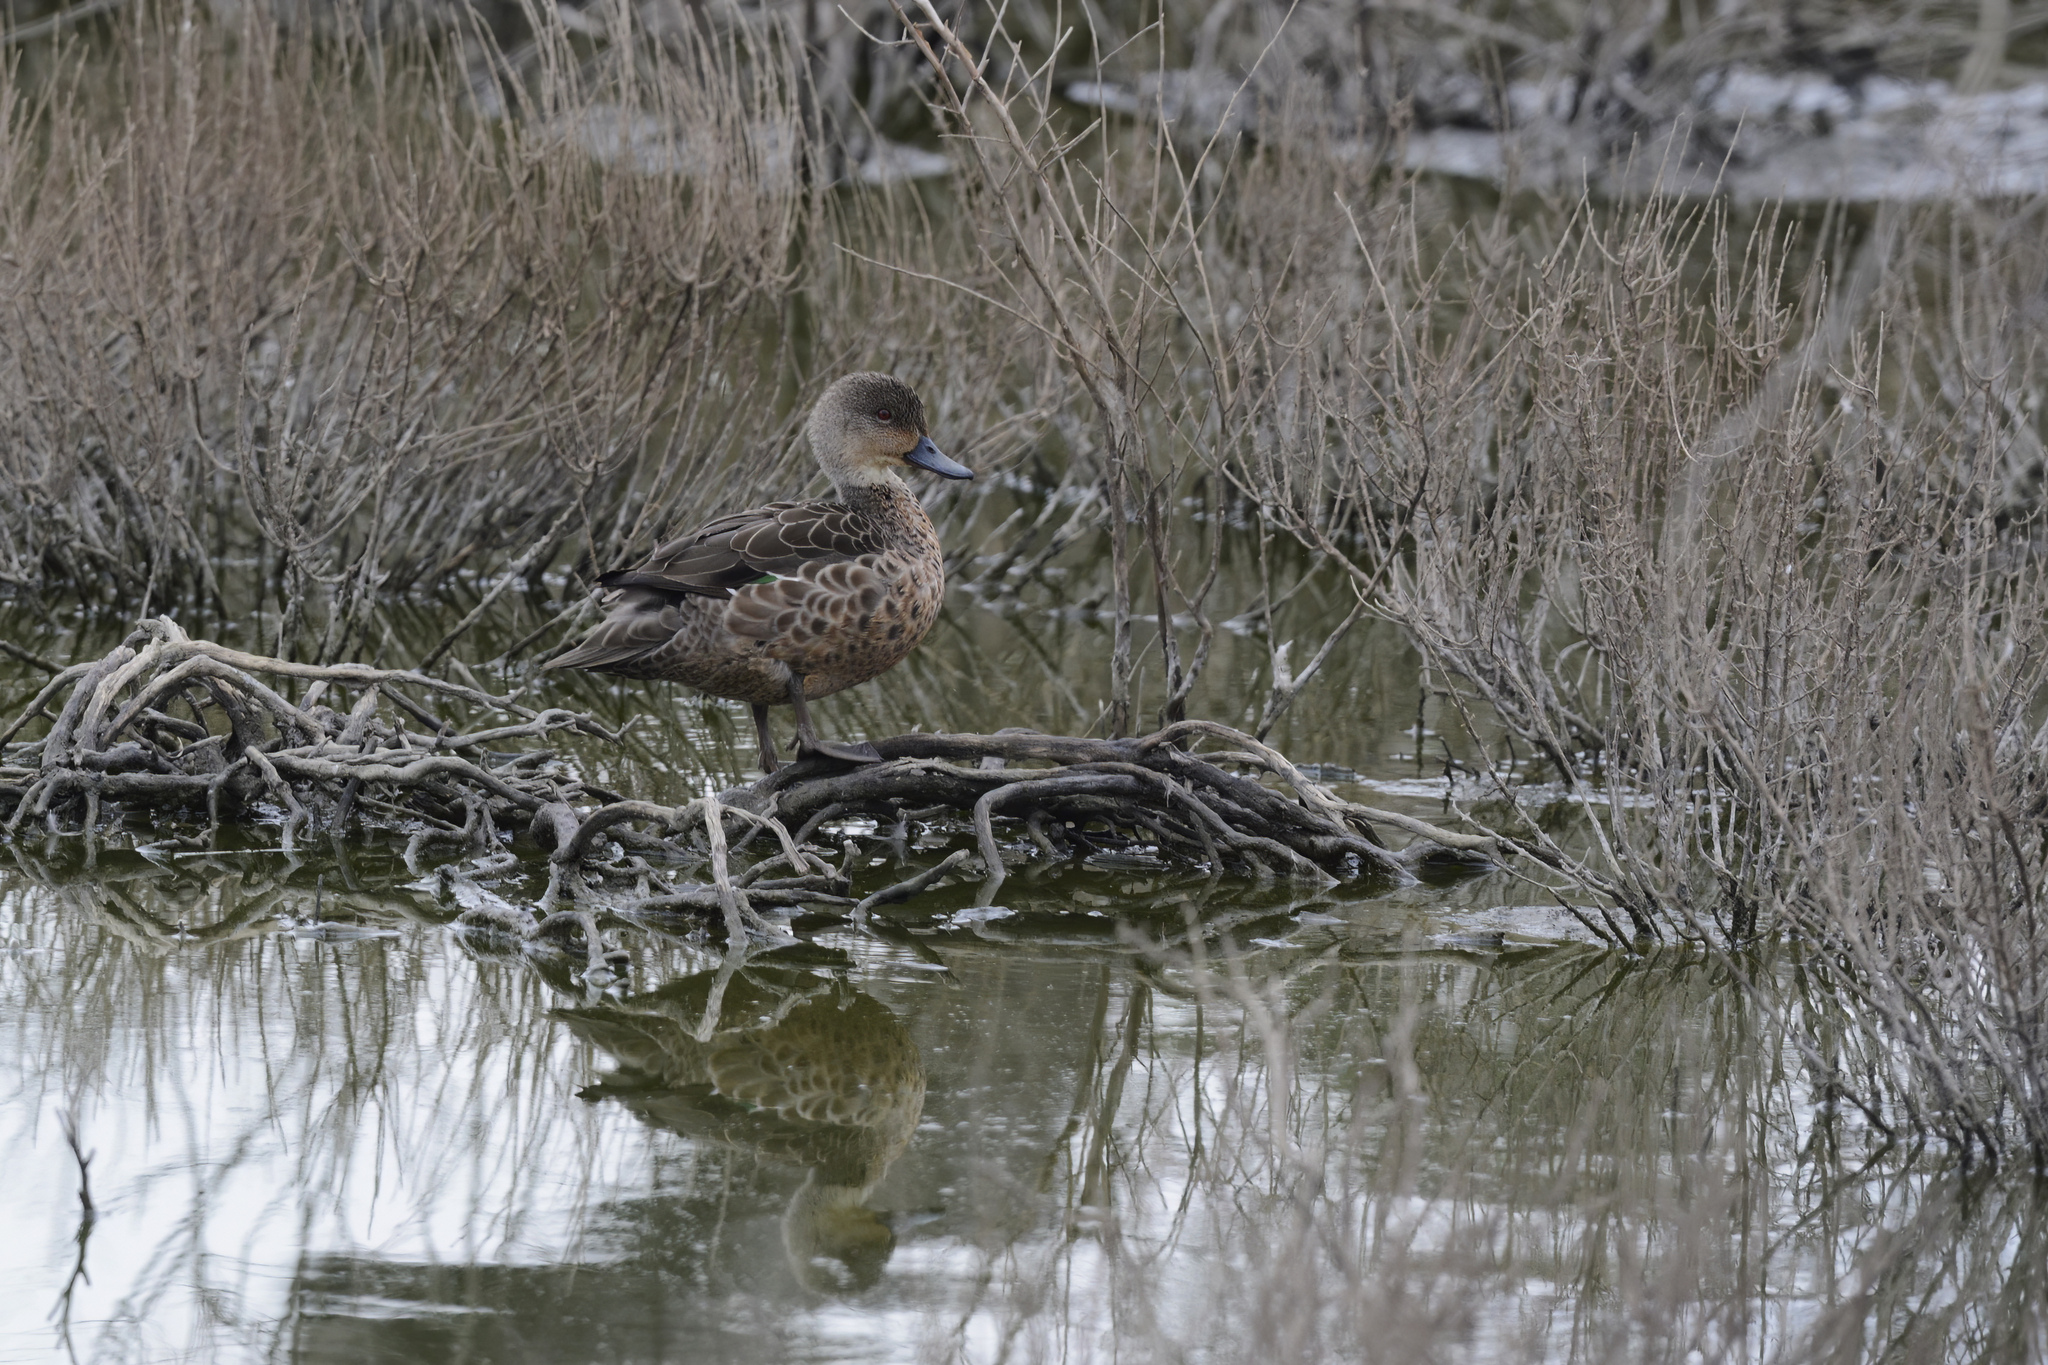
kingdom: Animalia
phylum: Chordata
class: Aves
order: Anseriformes
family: Anatidae
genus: Anas
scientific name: Anas gracilis
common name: Grey teal
